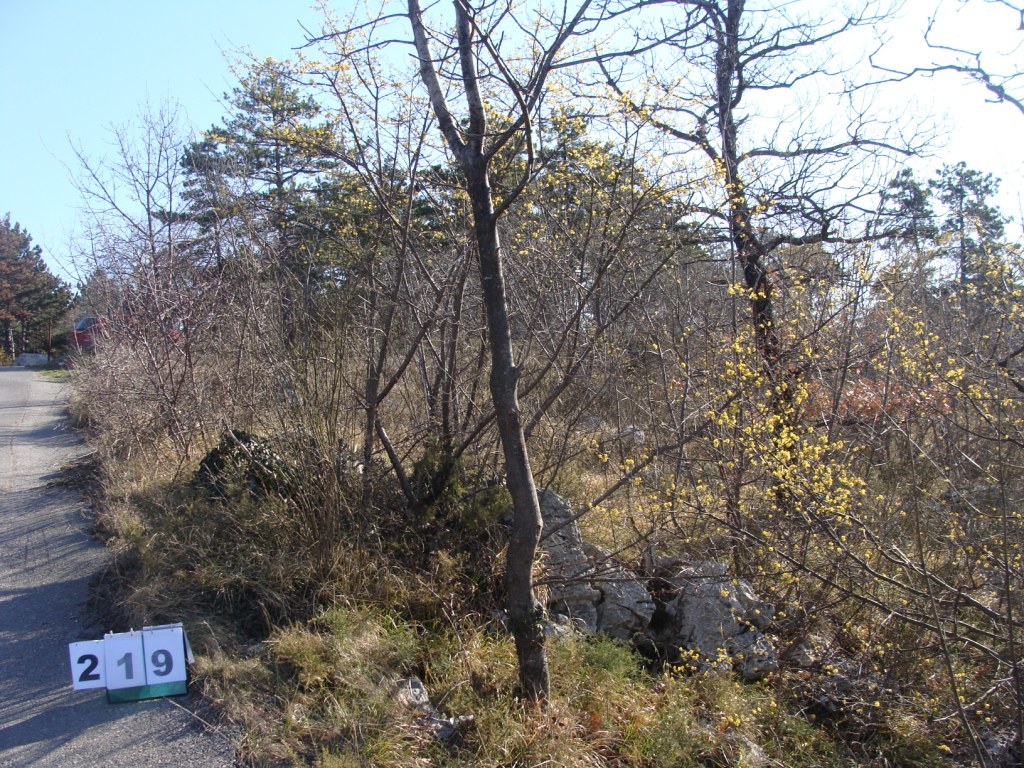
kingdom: Plantae
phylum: Tracheophyta
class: Magnoliopsida
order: Cornales
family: Cornaceae
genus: Cornus
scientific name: Cornus mas
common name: Cornelian-cherry
